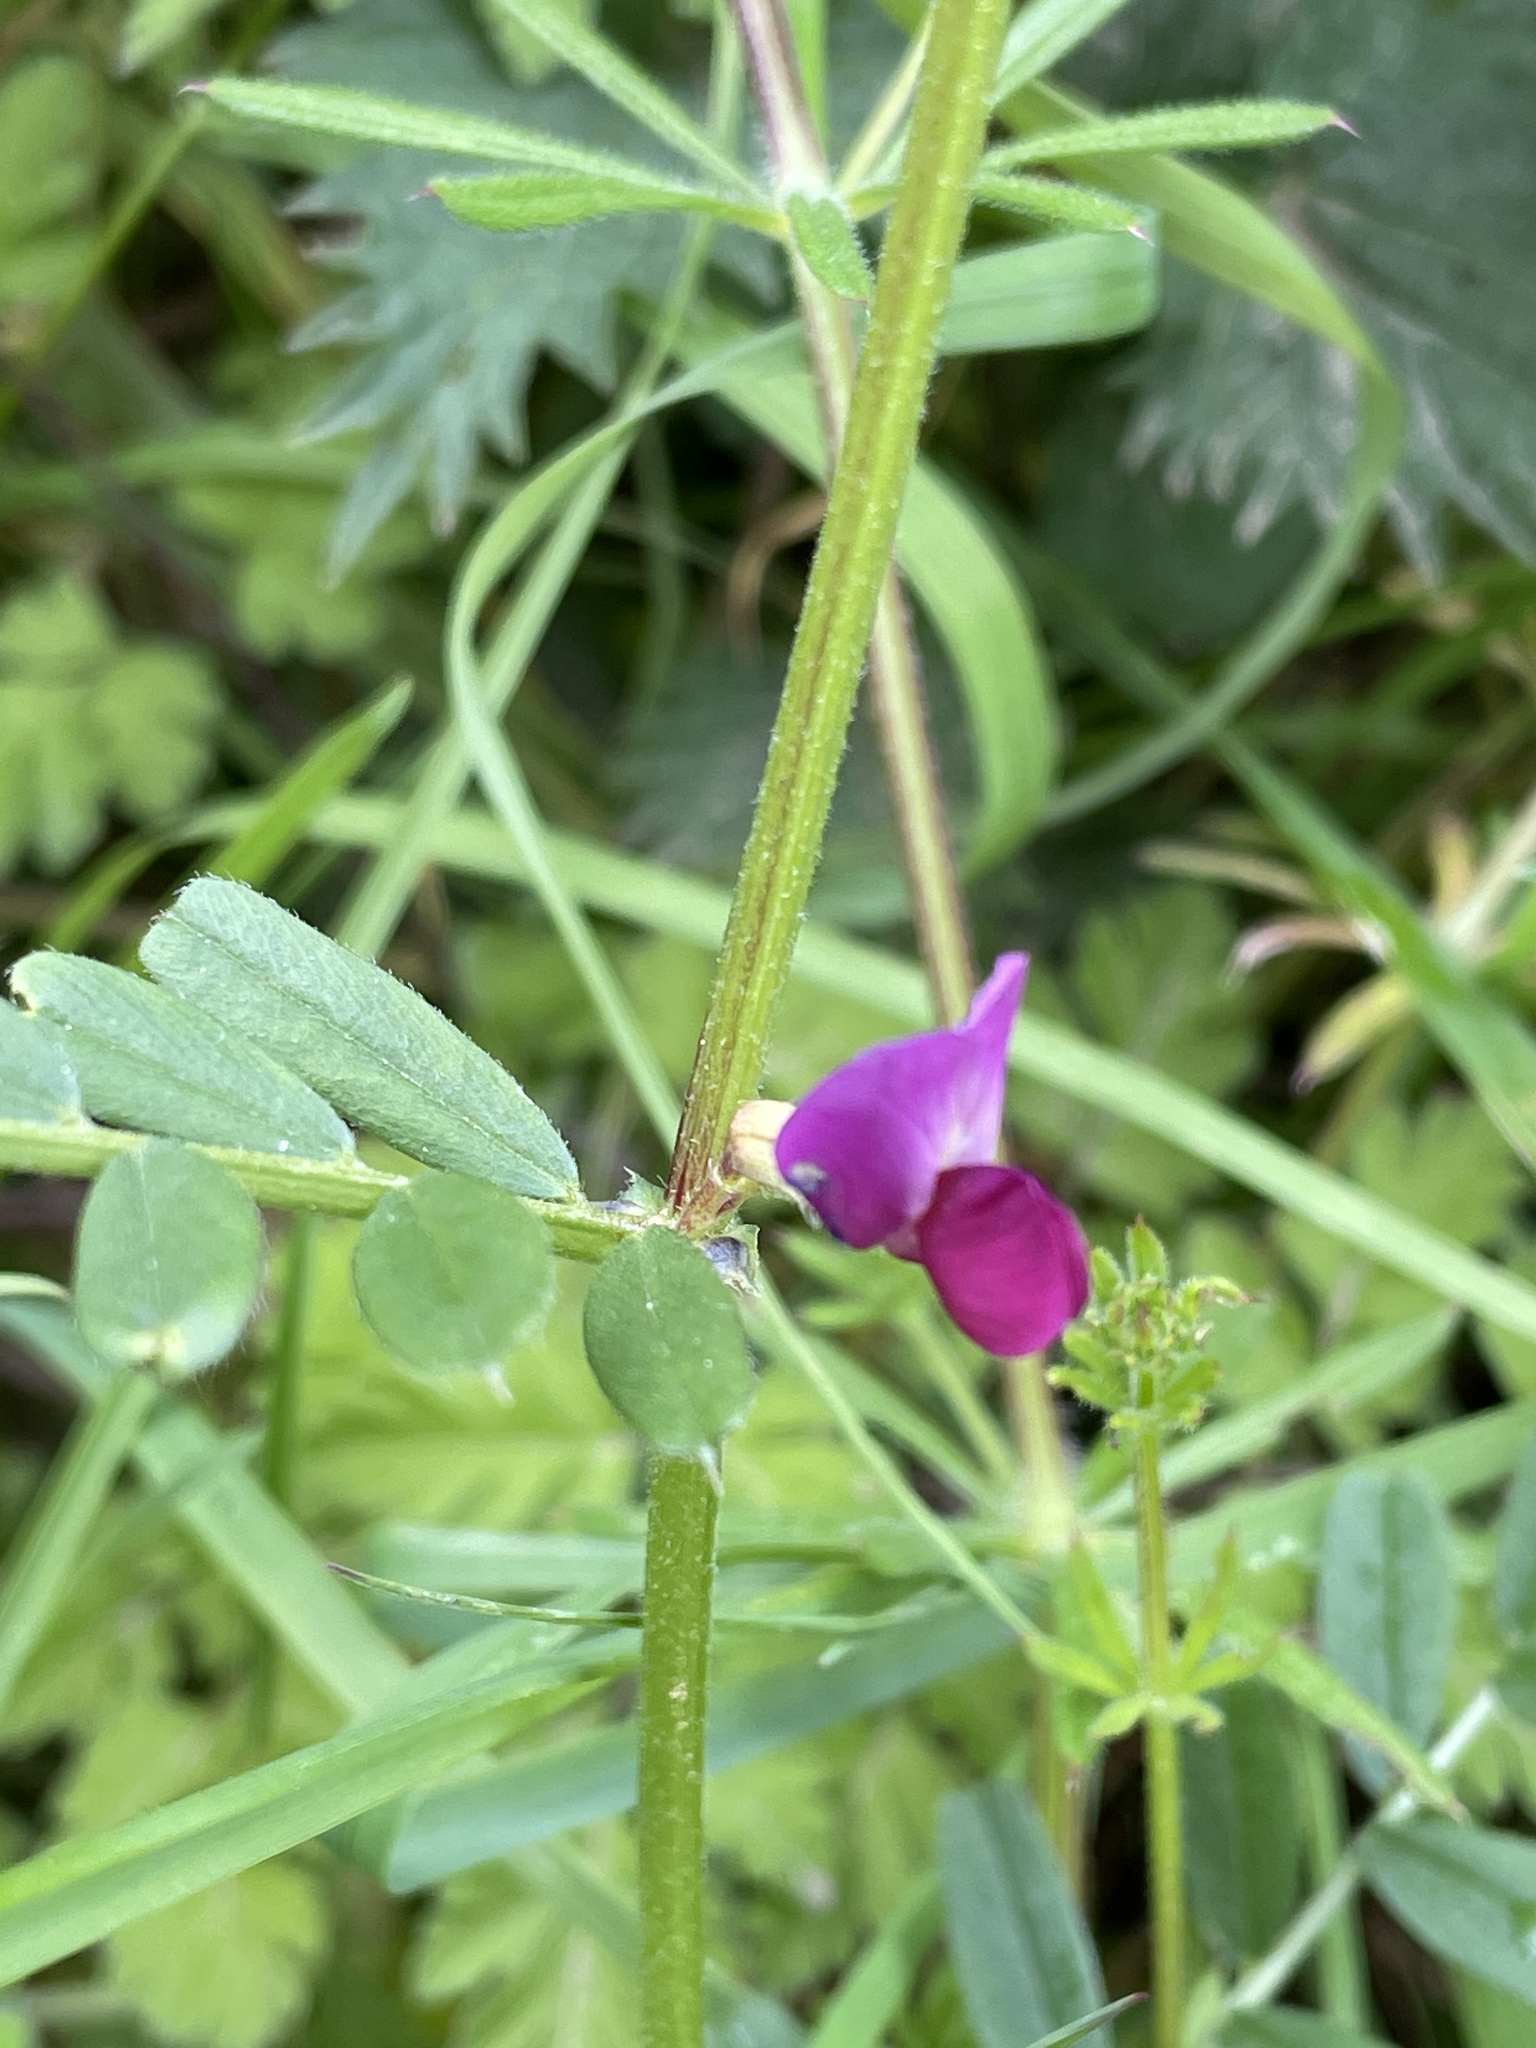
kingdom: Plantae
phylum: Tracheophyta
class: Magnoliopsida
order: Fabales
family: Fabaceae
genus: Vicia
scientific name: Vicia sativa
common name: Garden vetch
